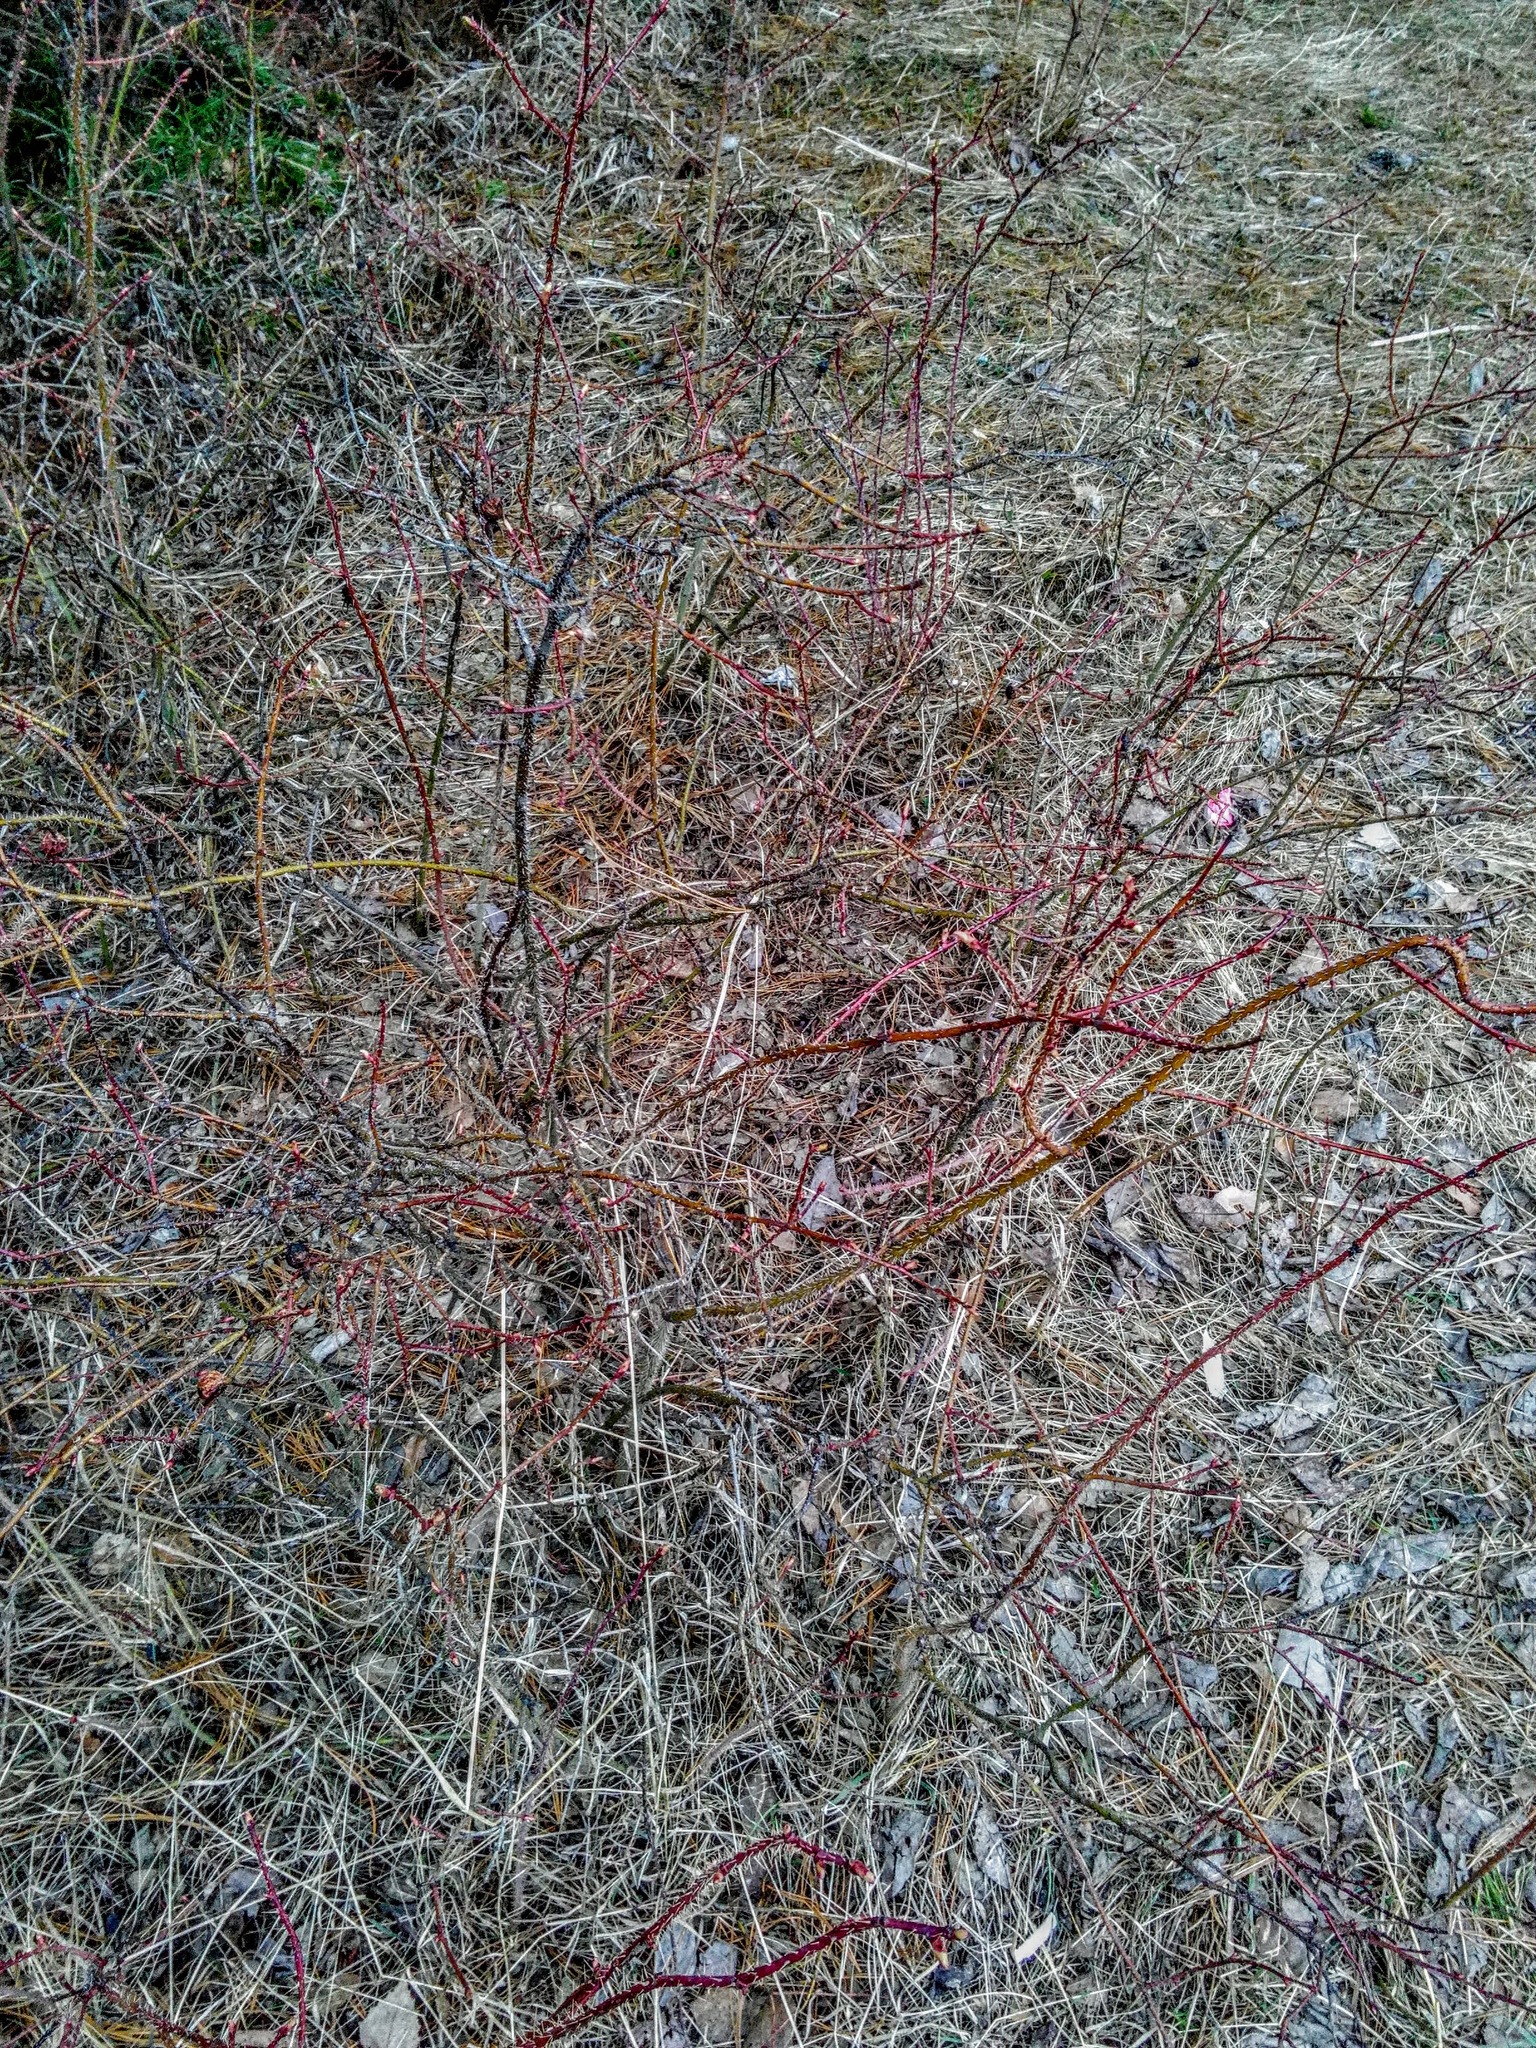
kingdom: Plantae
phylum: Tracheophyta
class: Magnoliopsida
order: Rosales
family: Rosaceae
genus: Rosa
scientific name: Rosa acicularis
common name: Prickly rose
